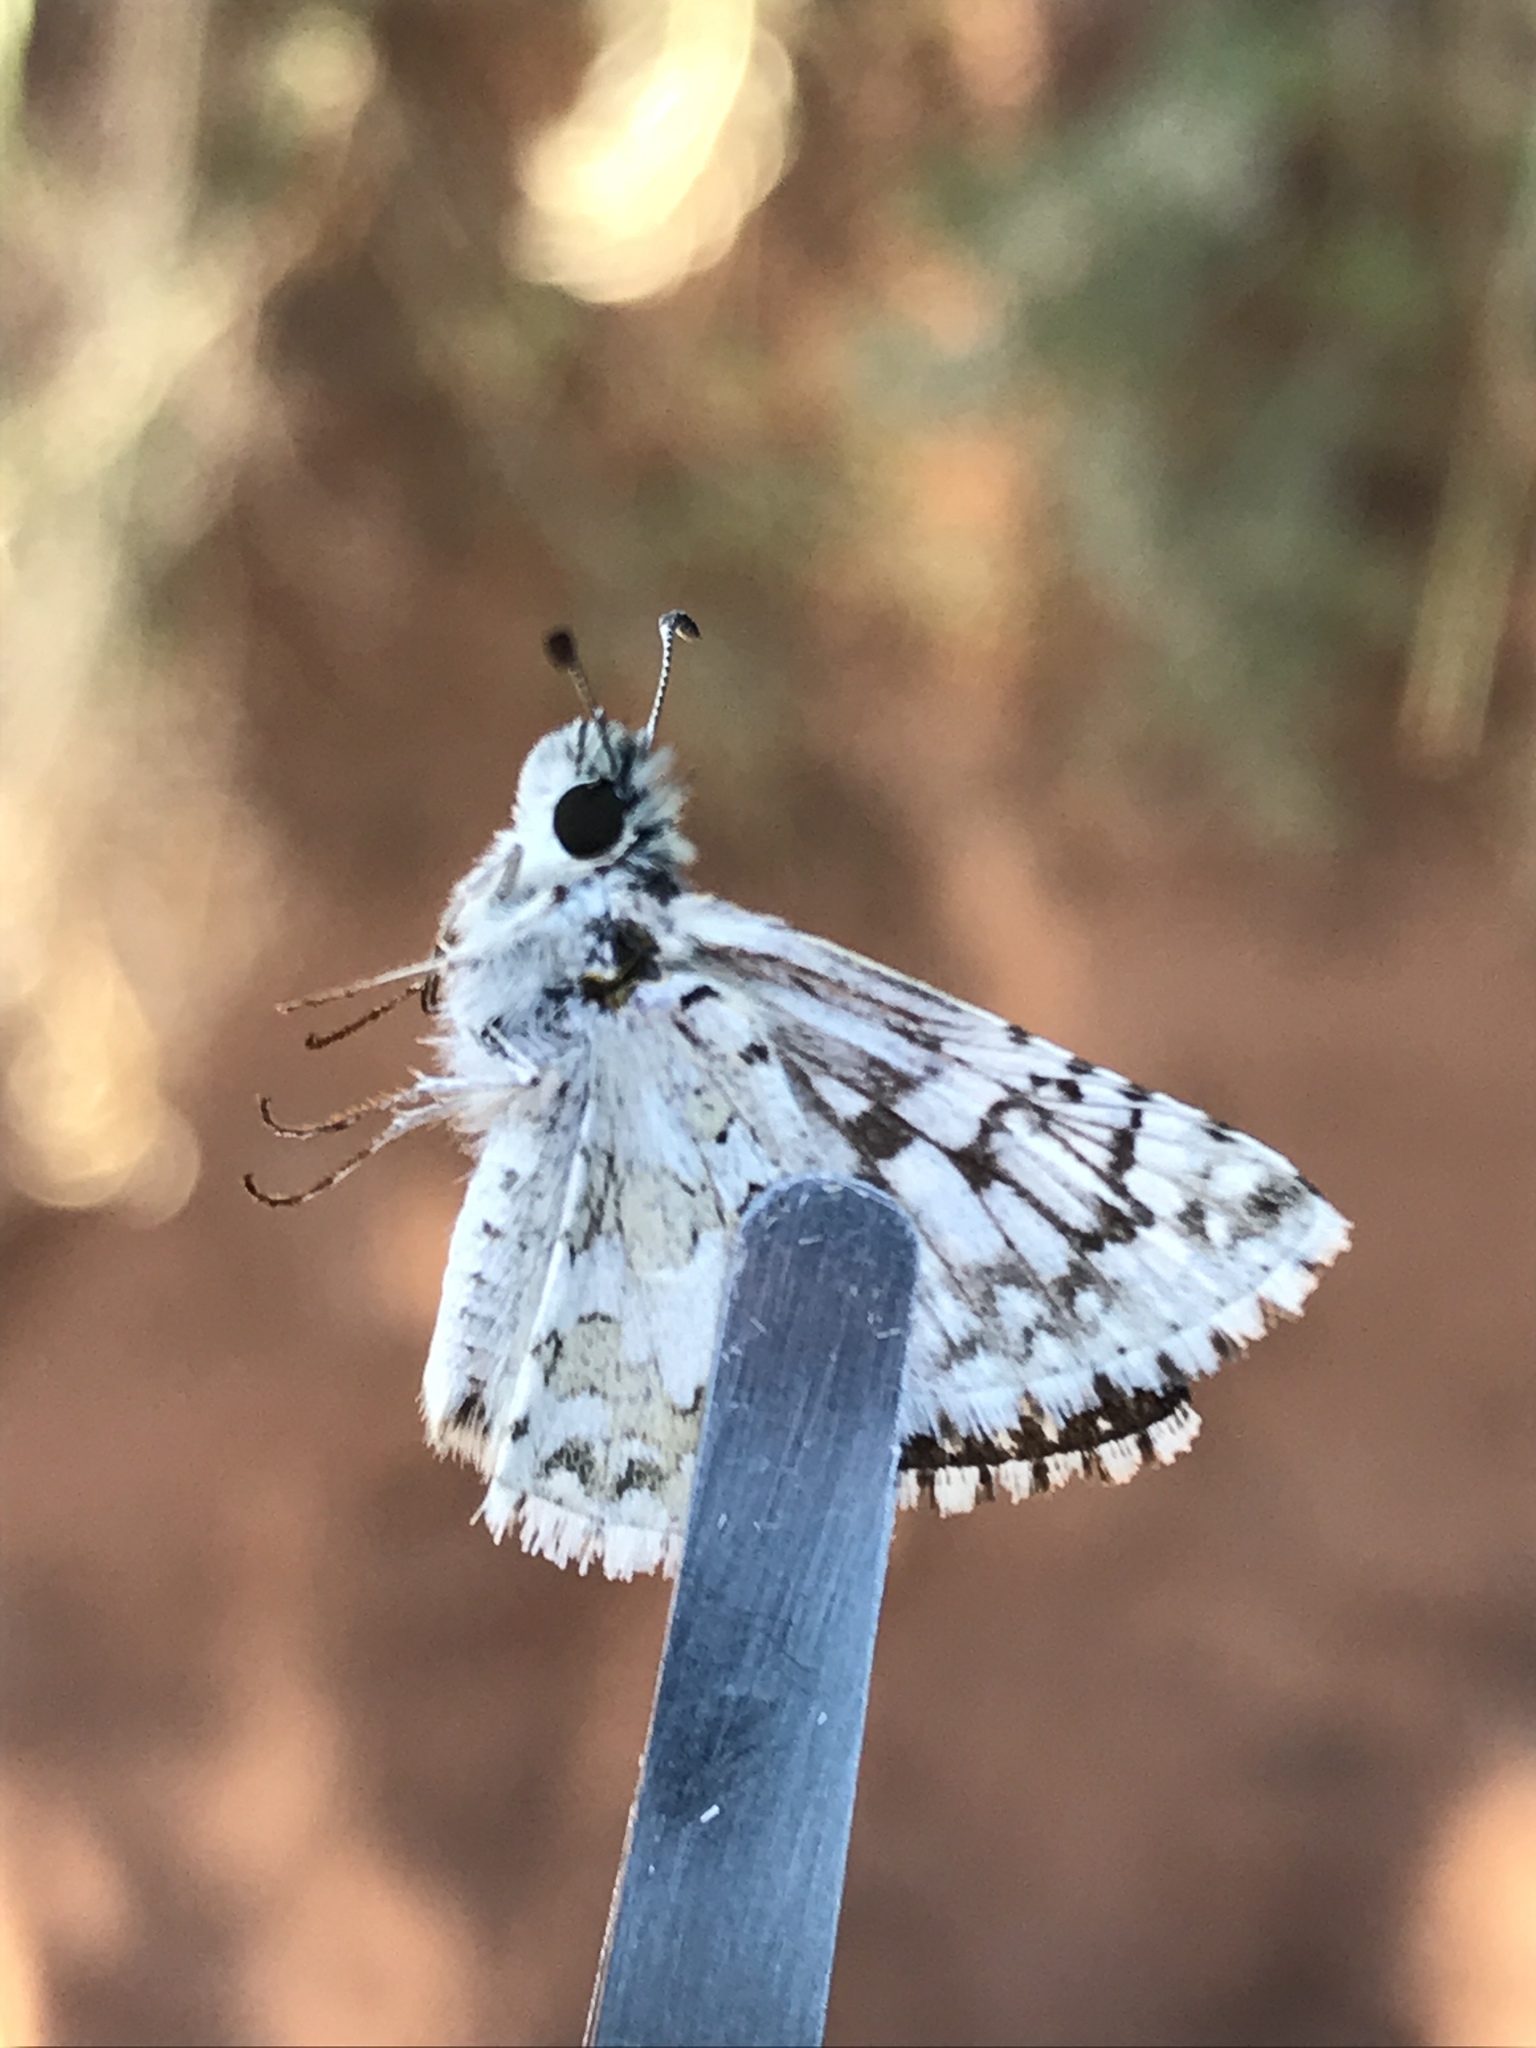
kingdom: Animalia
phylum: Arthropoda
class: Insecta
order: Lepidoptera
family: Hesperiidae
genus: Burnsius
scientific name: Burnsius communis
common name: Common checkered-skipper
